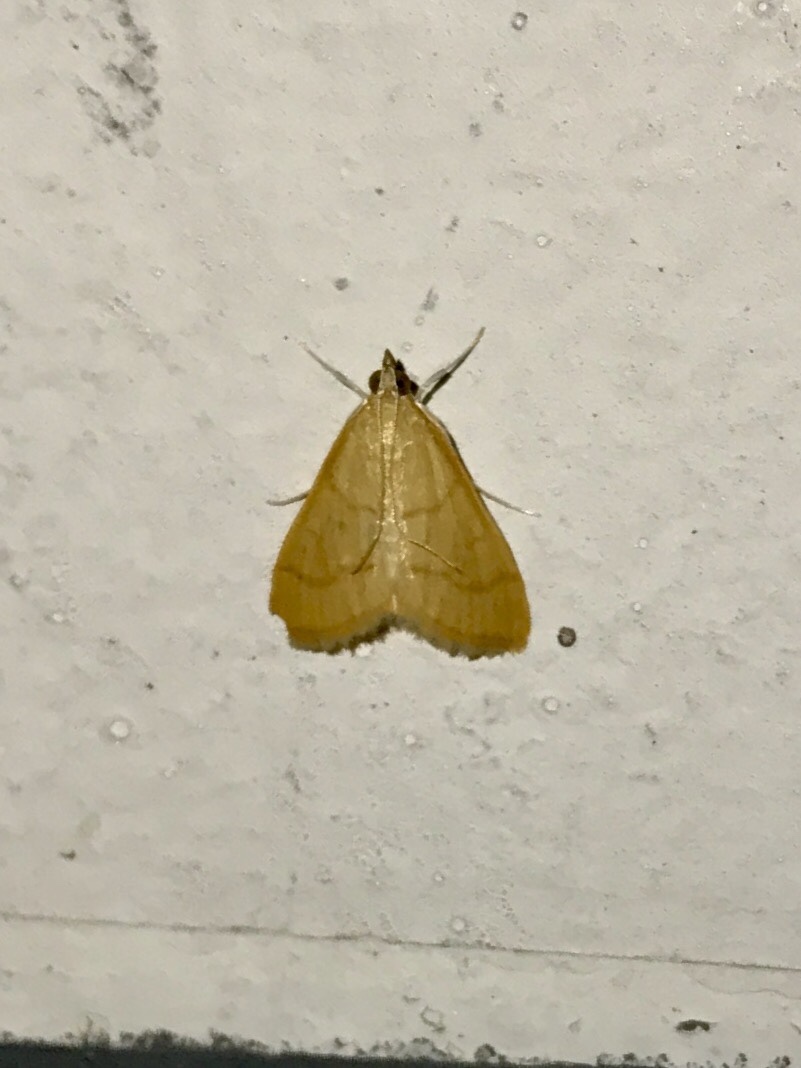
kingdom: Animalia
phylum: Arthropoda
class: Insecta
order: Lepidoptera
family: Crambidae
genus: Hahncappsia
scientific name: Hahncappsia fordi
